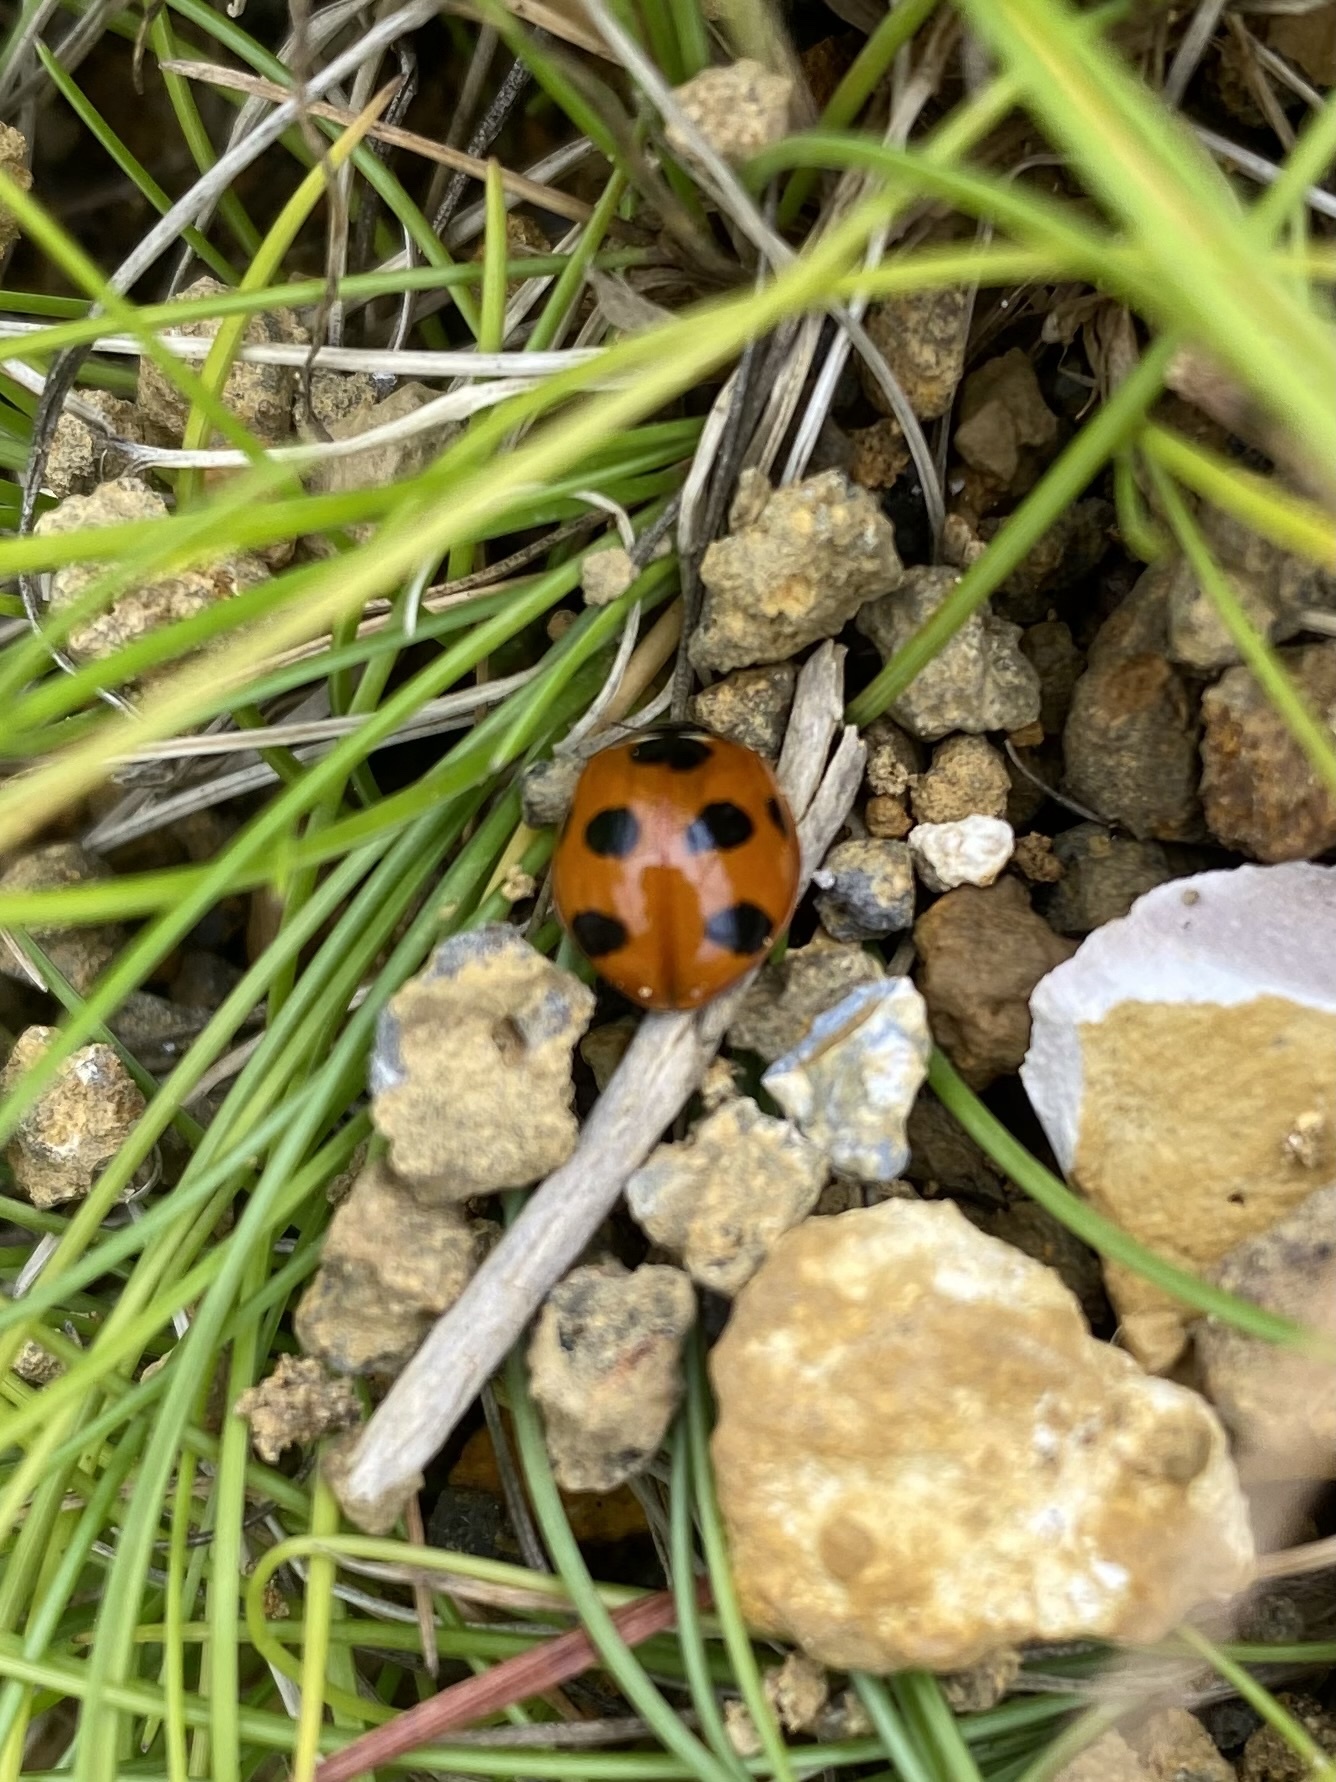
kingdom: Animalia
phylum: Arthropoda
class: Insecta
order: Coleoptera
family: Coccinellidae
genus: Coccinella
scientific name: Coccinella septempunctata
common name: Sevenspotted lady beetle
